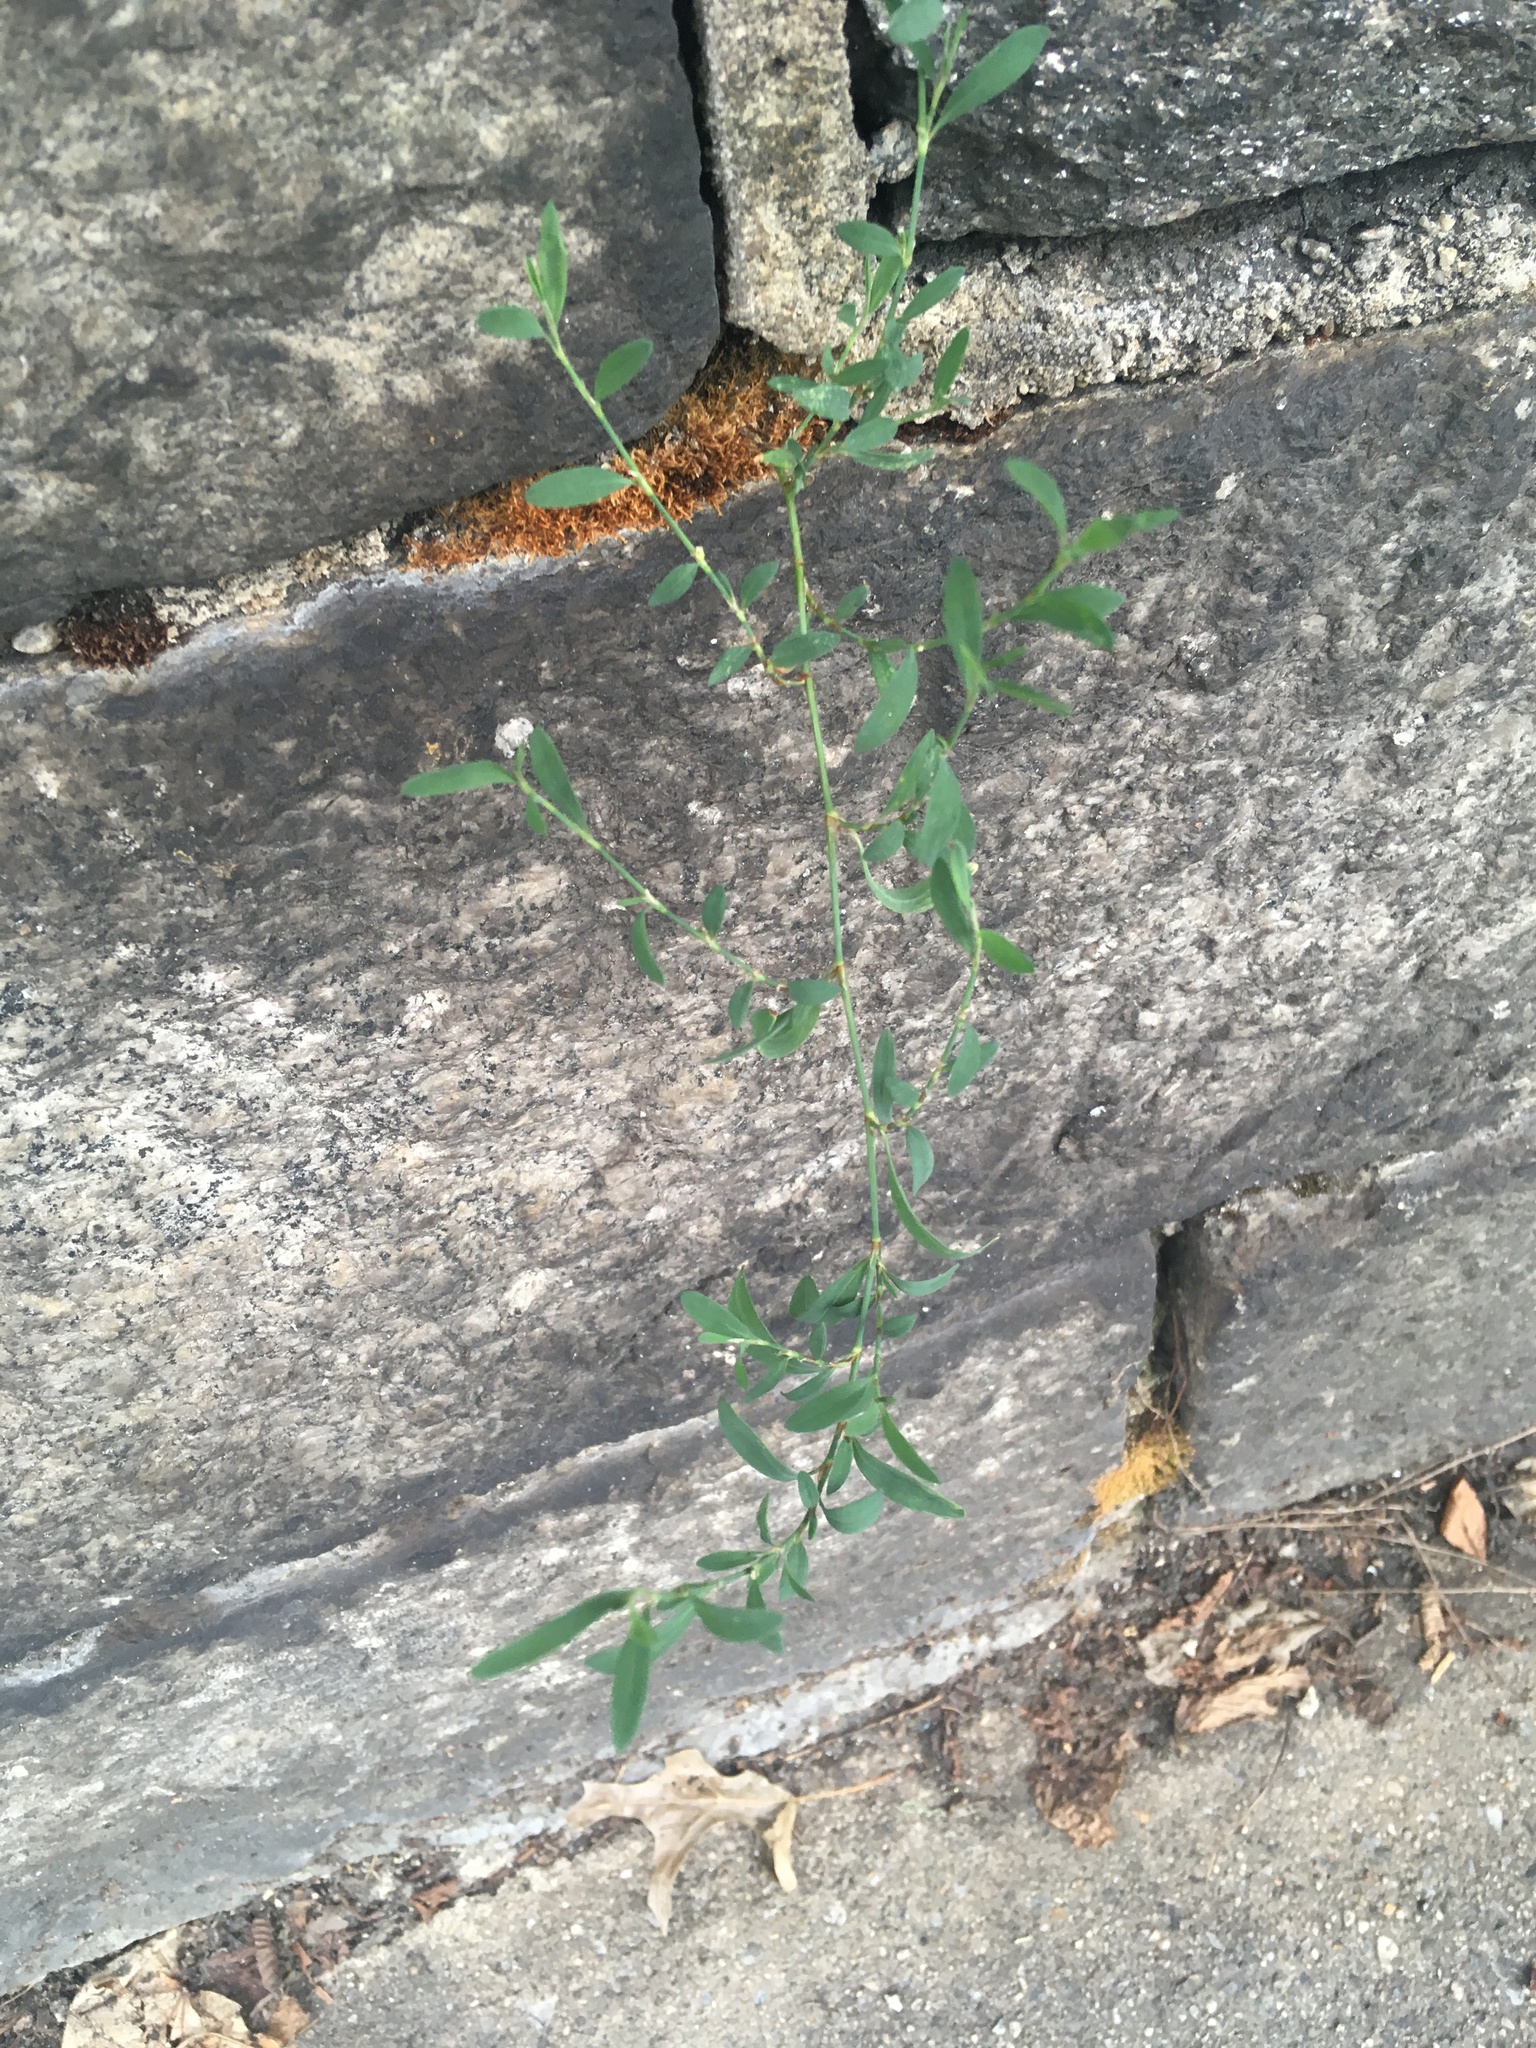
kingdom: Plantae
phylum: Tracheophyta
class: Magnoliopsida
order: Caryophyllales
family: Polygonaceae
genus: Polygonum
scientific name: Polygonum aviculare
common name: Prostrate knotweed
